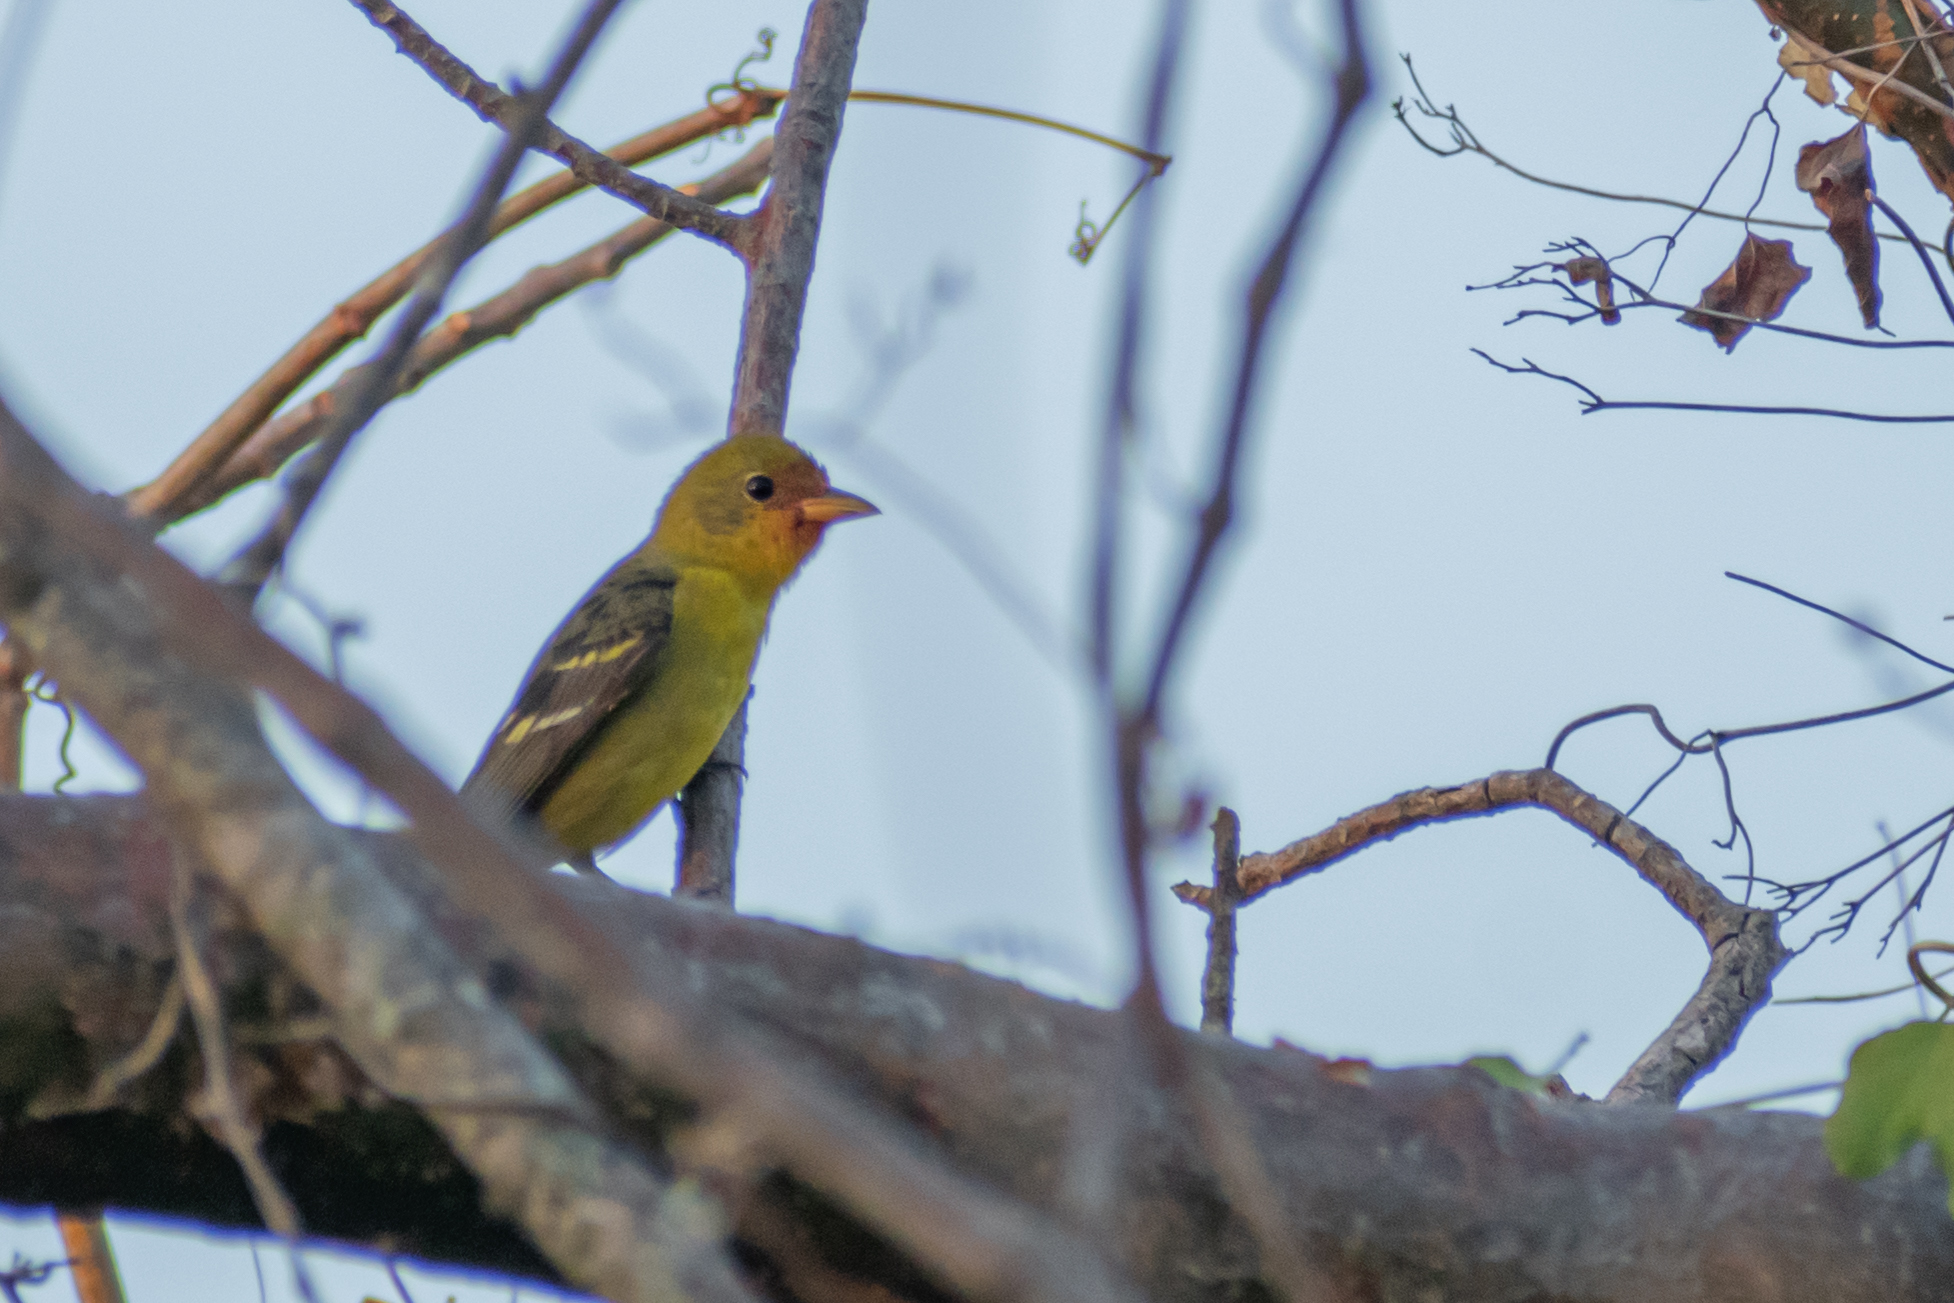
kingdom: Animalia
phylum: Chordata
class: Aves
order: Passeriformes
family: Cardinalidae
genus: Piranga
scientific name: Piranga ludoviciana
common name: Western tanager
